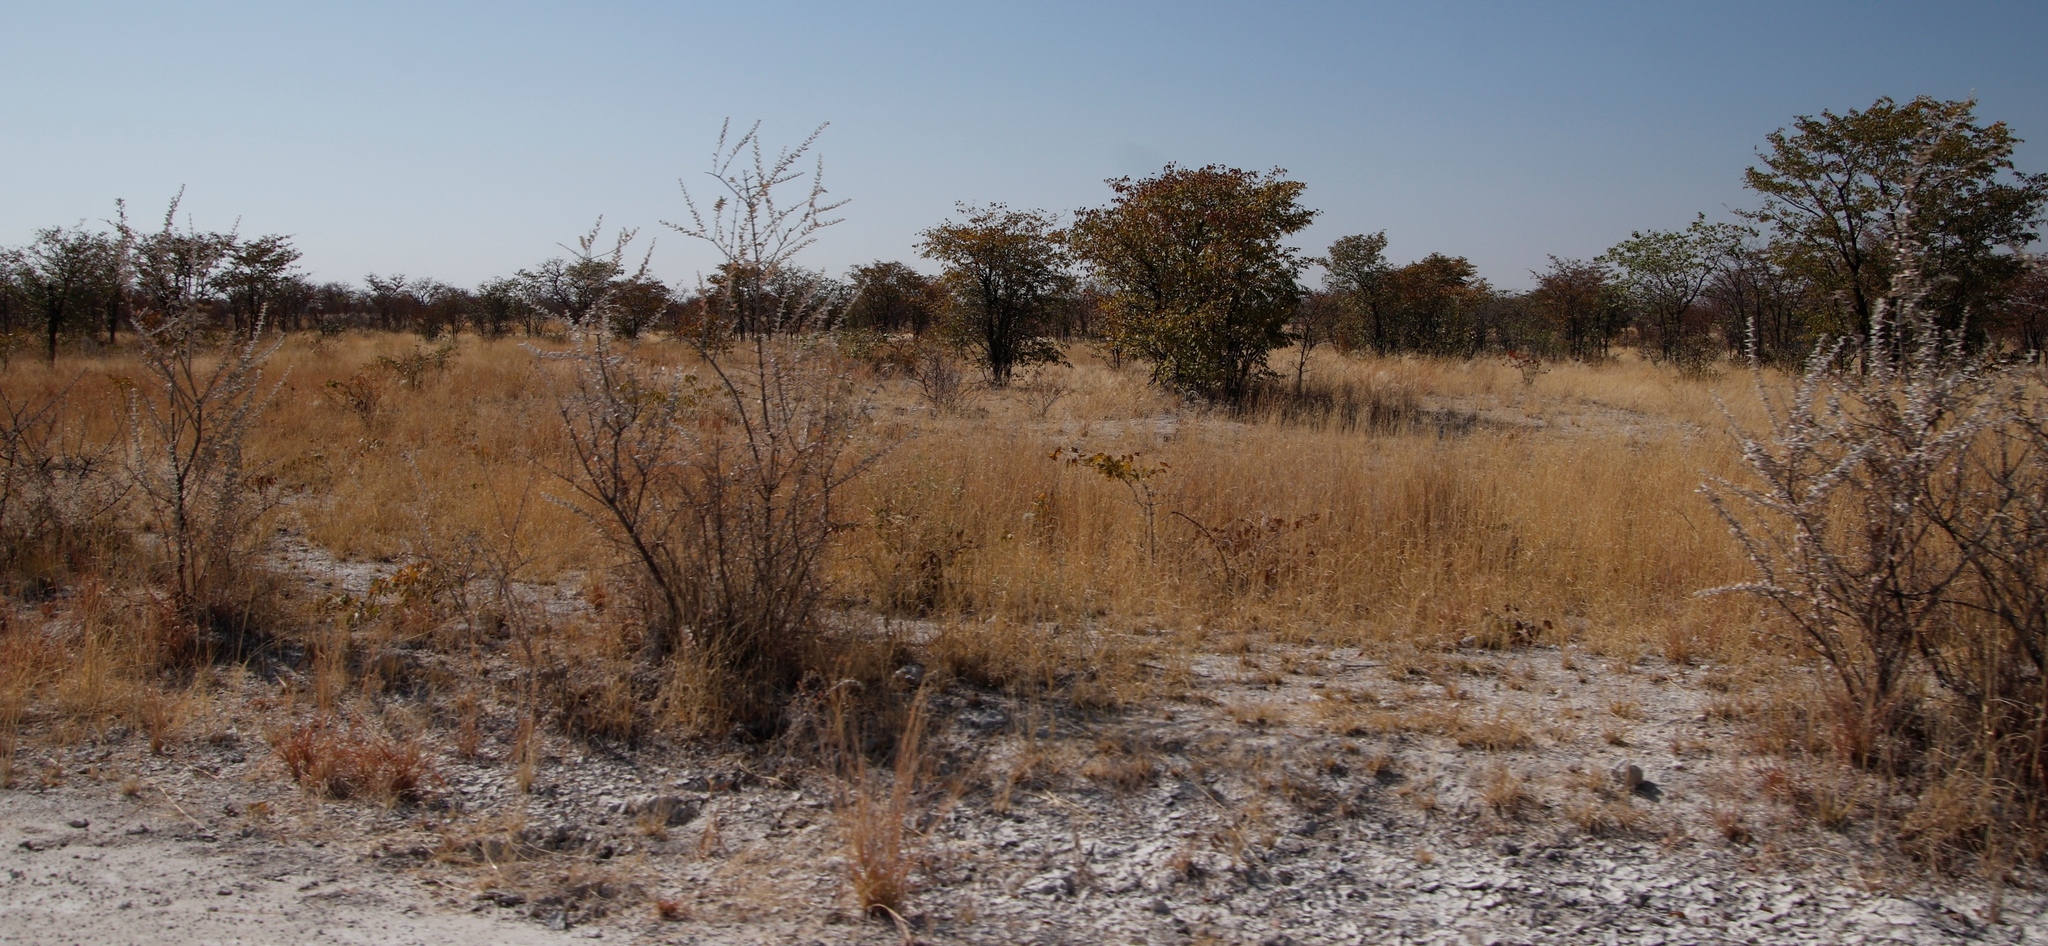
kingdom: Plantae
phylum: Tracheophyta
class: Magnoliopsida
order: Lamiales
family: Bignoniaceae
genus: Catophractes
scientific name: Catophractes alexandri
